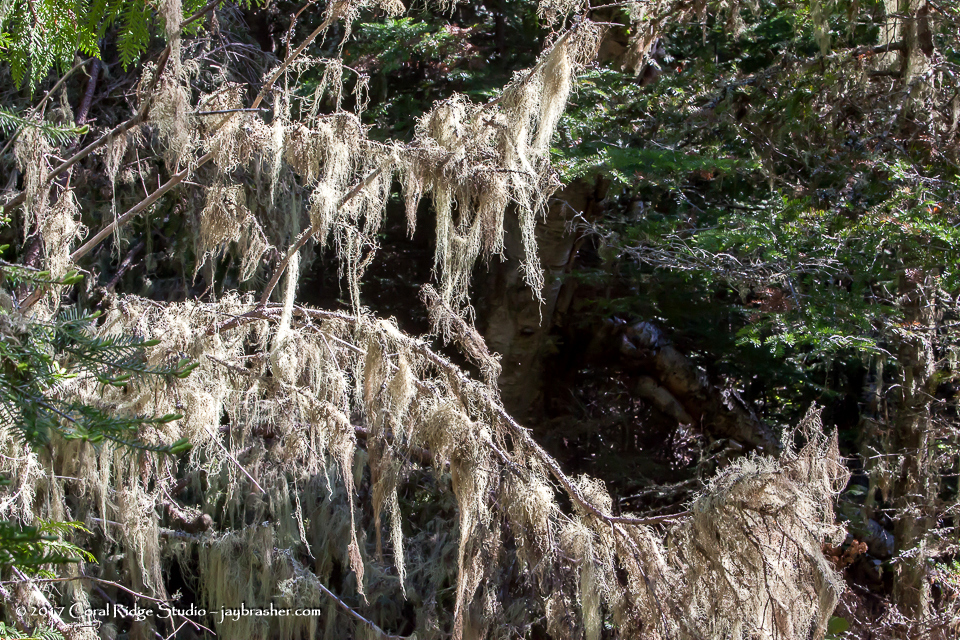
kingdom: Fungi
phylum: Ascomycota
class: Lecanoromycetes
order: Lecanorales
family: Parmeliaceae
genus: Usnea
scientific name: Usnea cavernosa
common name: Pitted beard lichen
